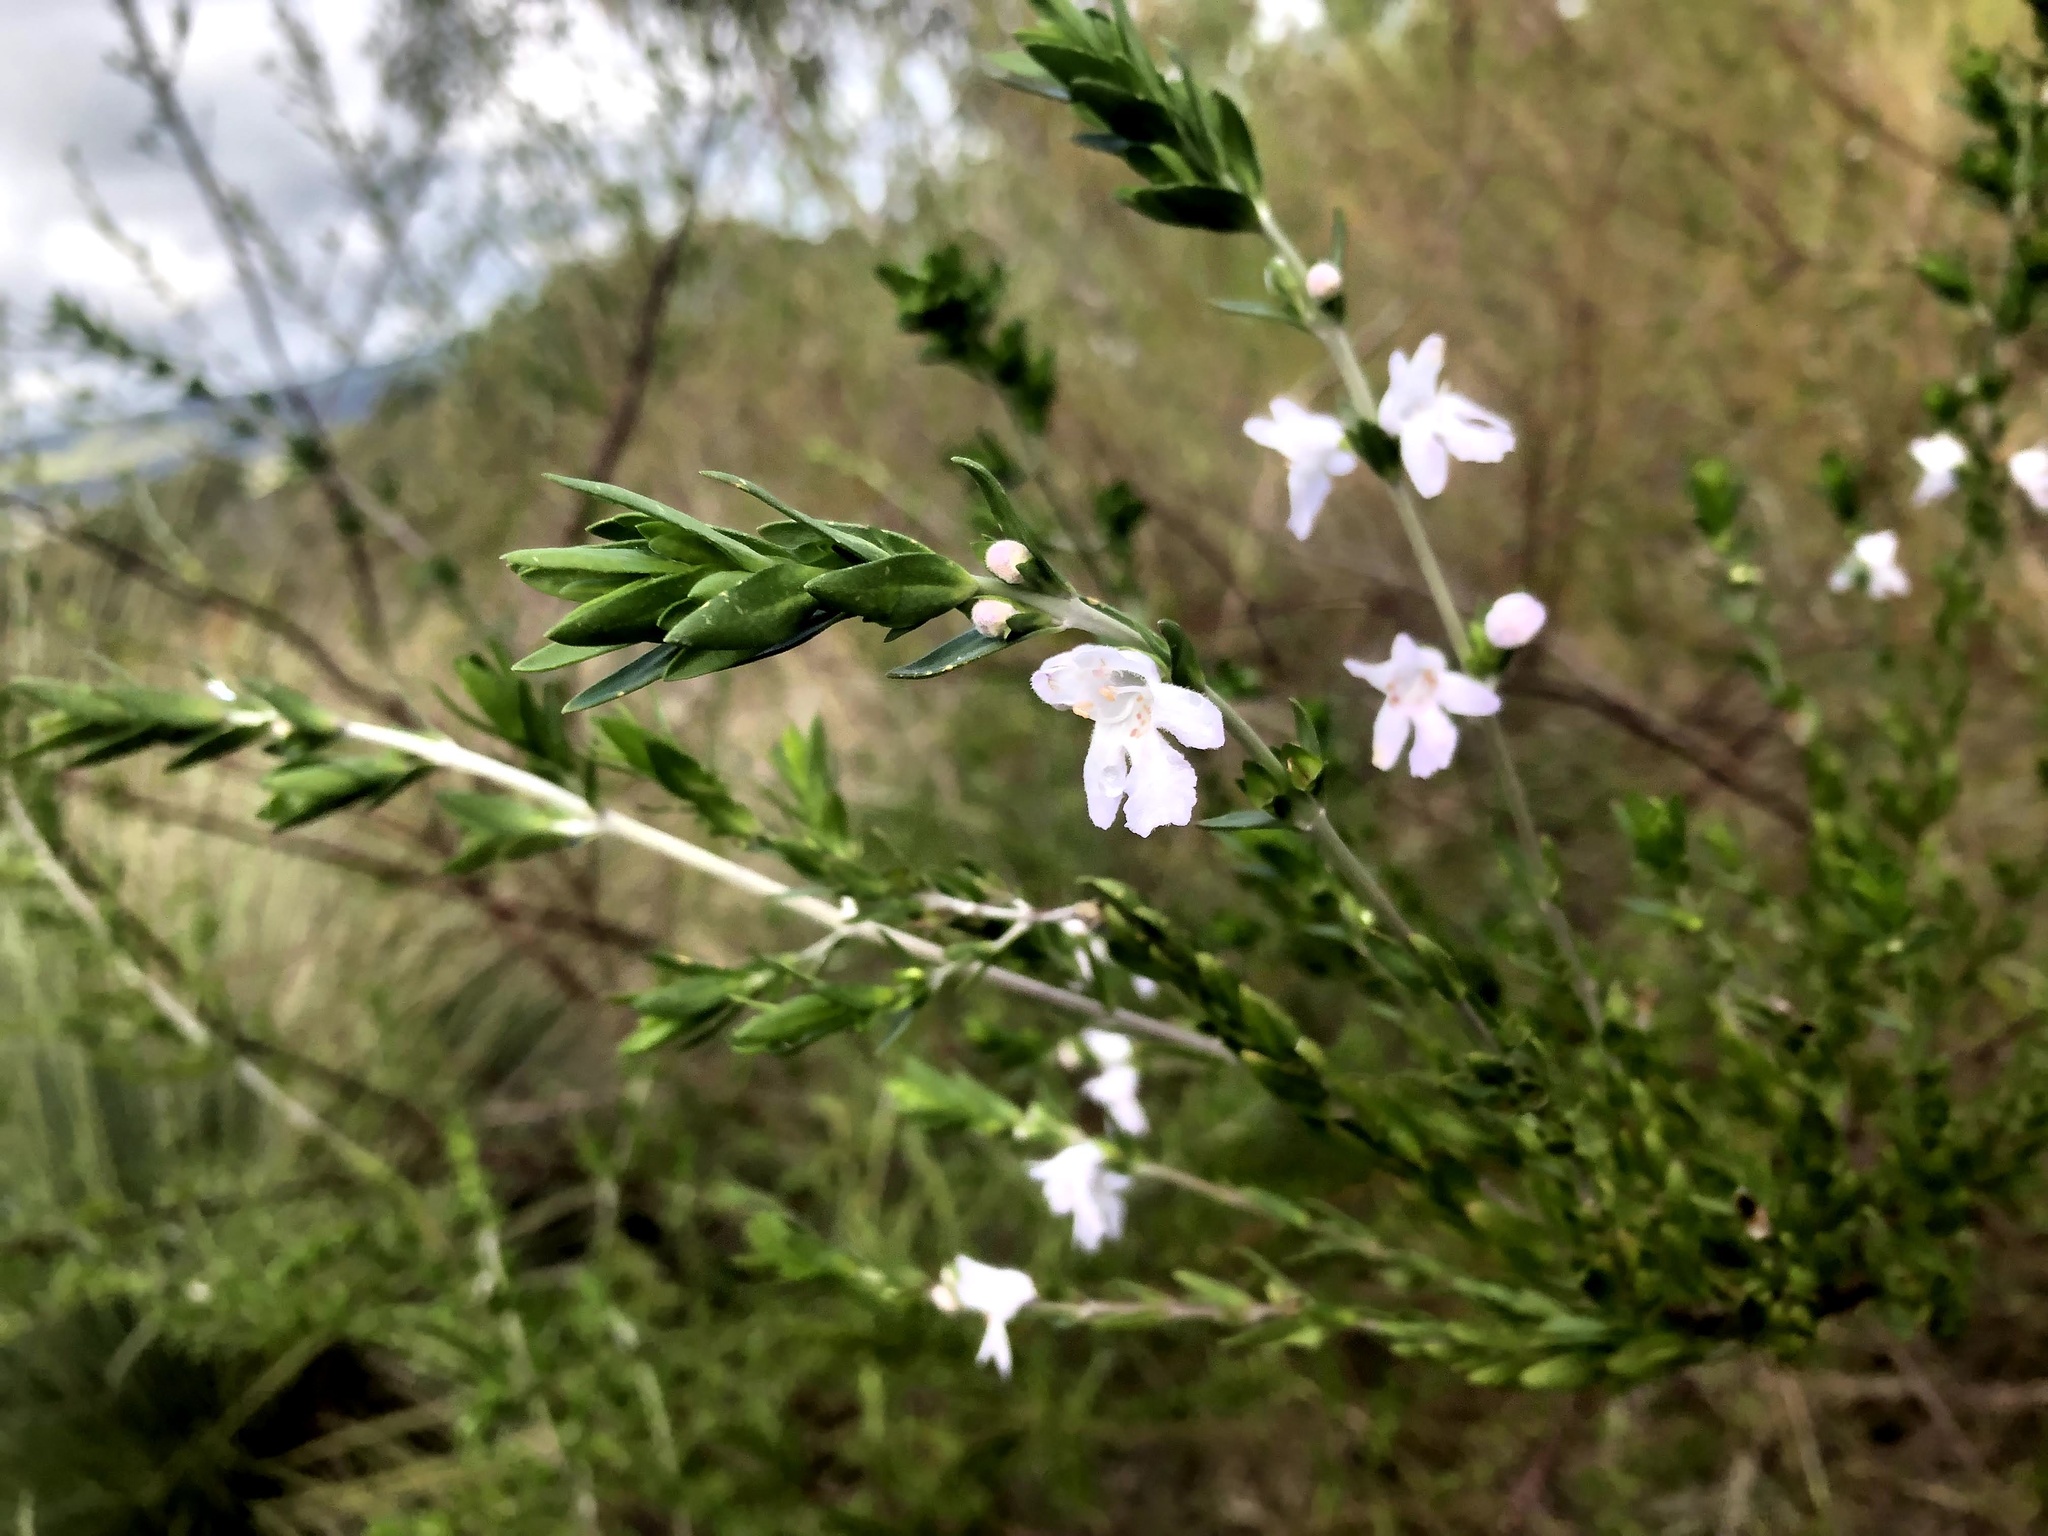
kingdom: Plantae
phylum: Tracheophyta
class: Magnoliopsida
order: Lamiales
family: Lamiaceae
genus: Prostanthera
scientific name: Prostanthera behriana
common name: Downy mintbush
